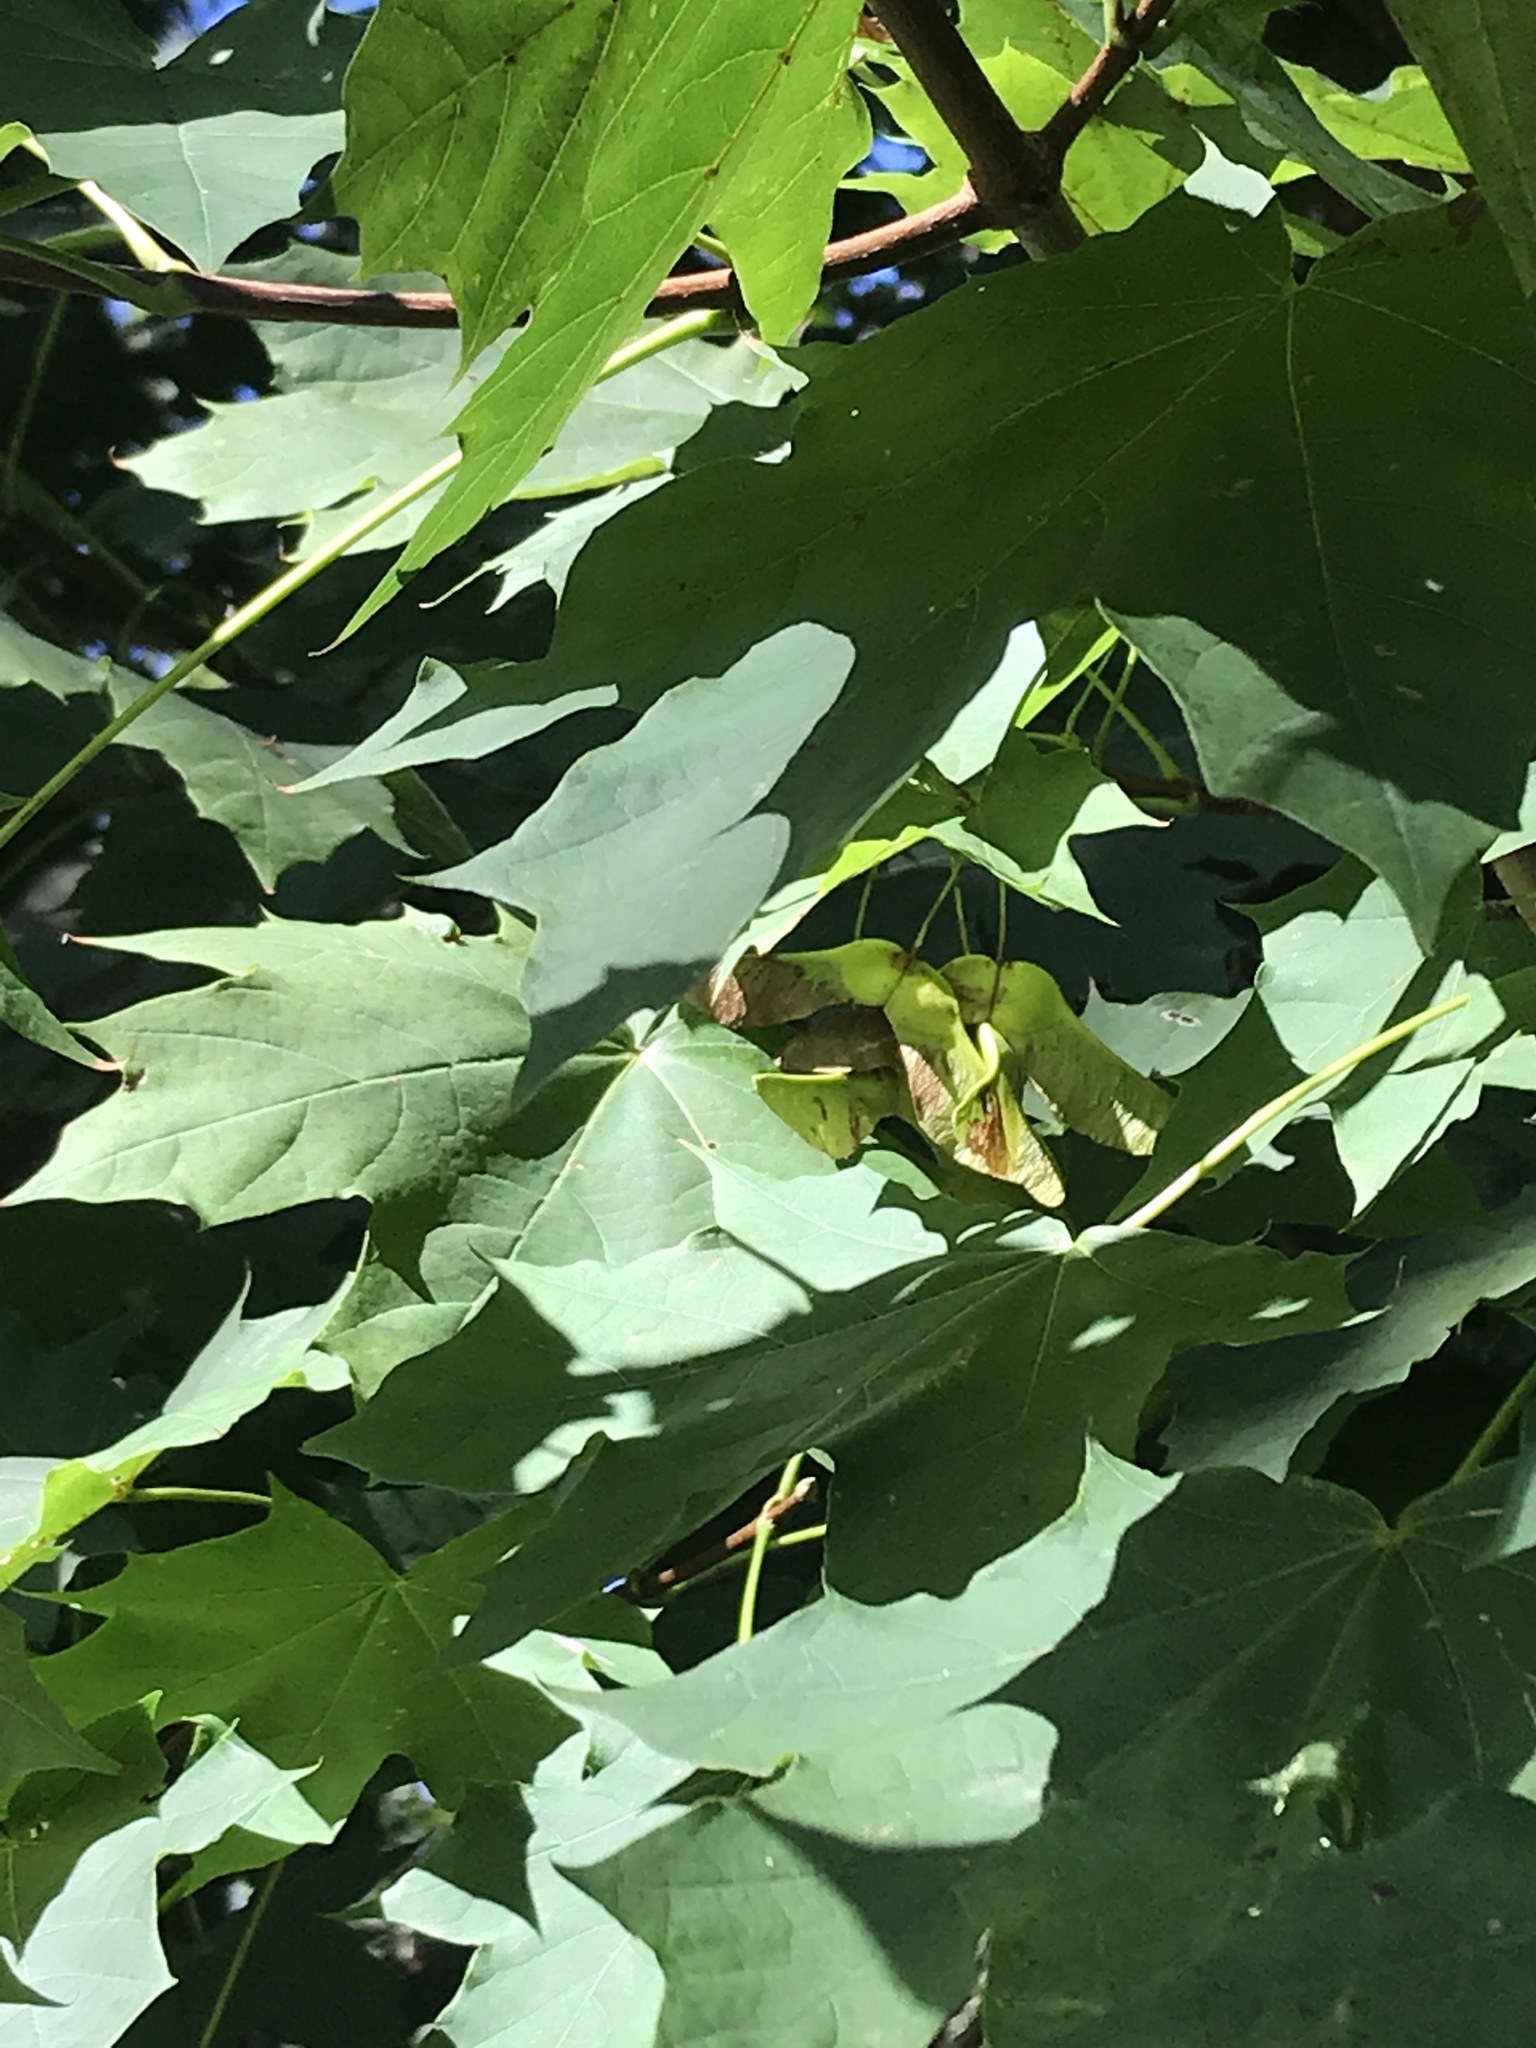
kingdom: Plantae
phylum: Tracheophyta
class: Magnoliopsida
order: Sapindales
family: Sapindaceae
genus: Acer
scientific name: Acer platanoides
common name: Norway maple
